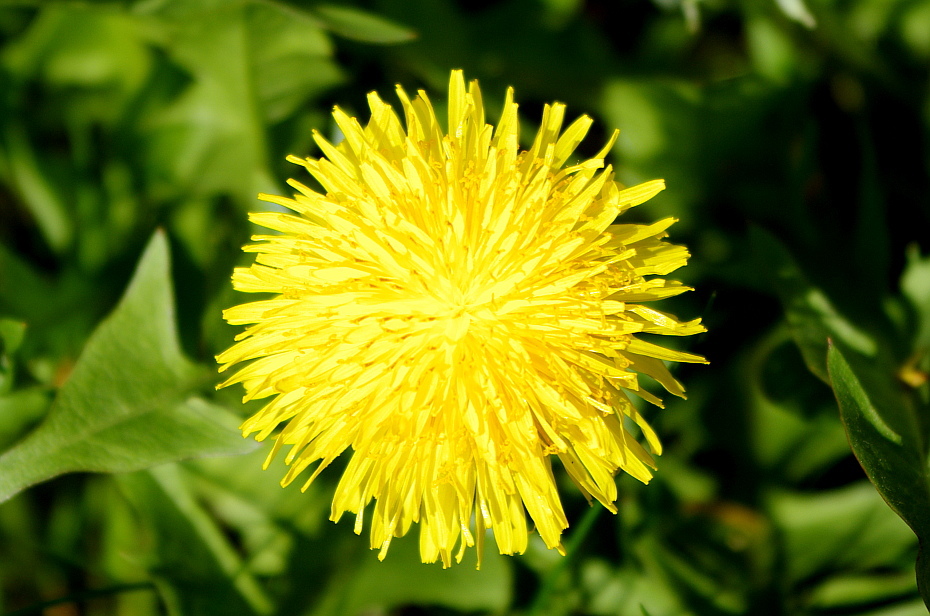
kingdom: Plantae
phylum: Tracheophyta
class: Magnoliopsida
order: Asterales
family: Asteraceae
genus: Taraxacum
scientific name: Taraxacum officinale
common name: Common dandelion
